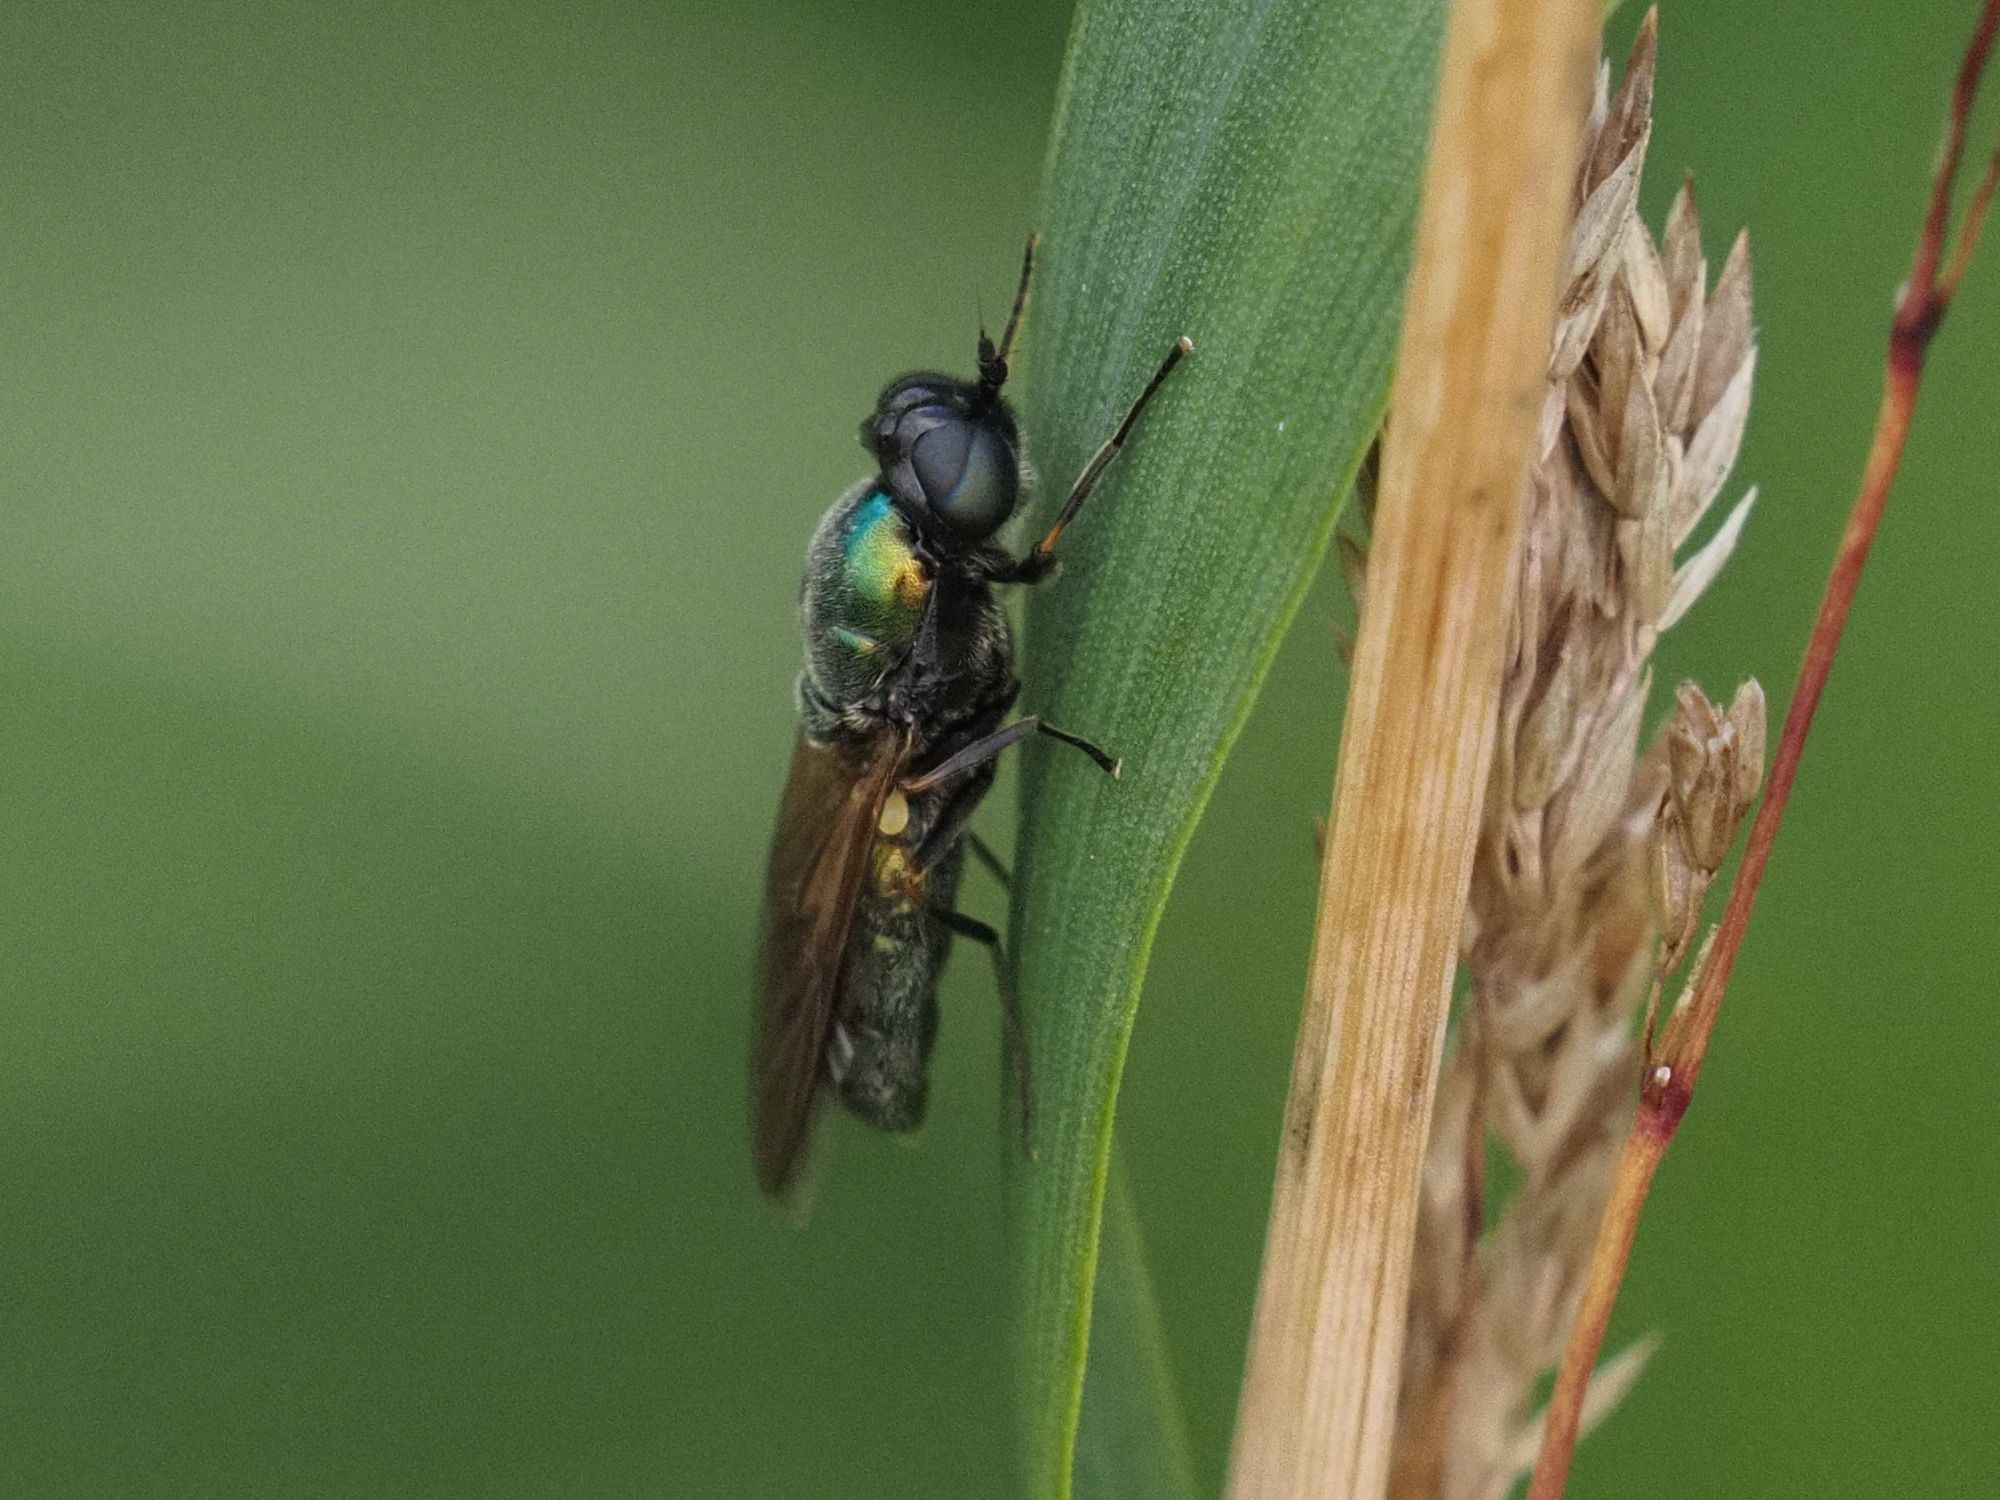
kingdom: Animalia
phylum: Arthropoda
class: Insecta
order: Diptera
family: Stratiomyidae
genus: Chloromyia
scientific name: Chloromyia formosa
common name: Soldier fly
